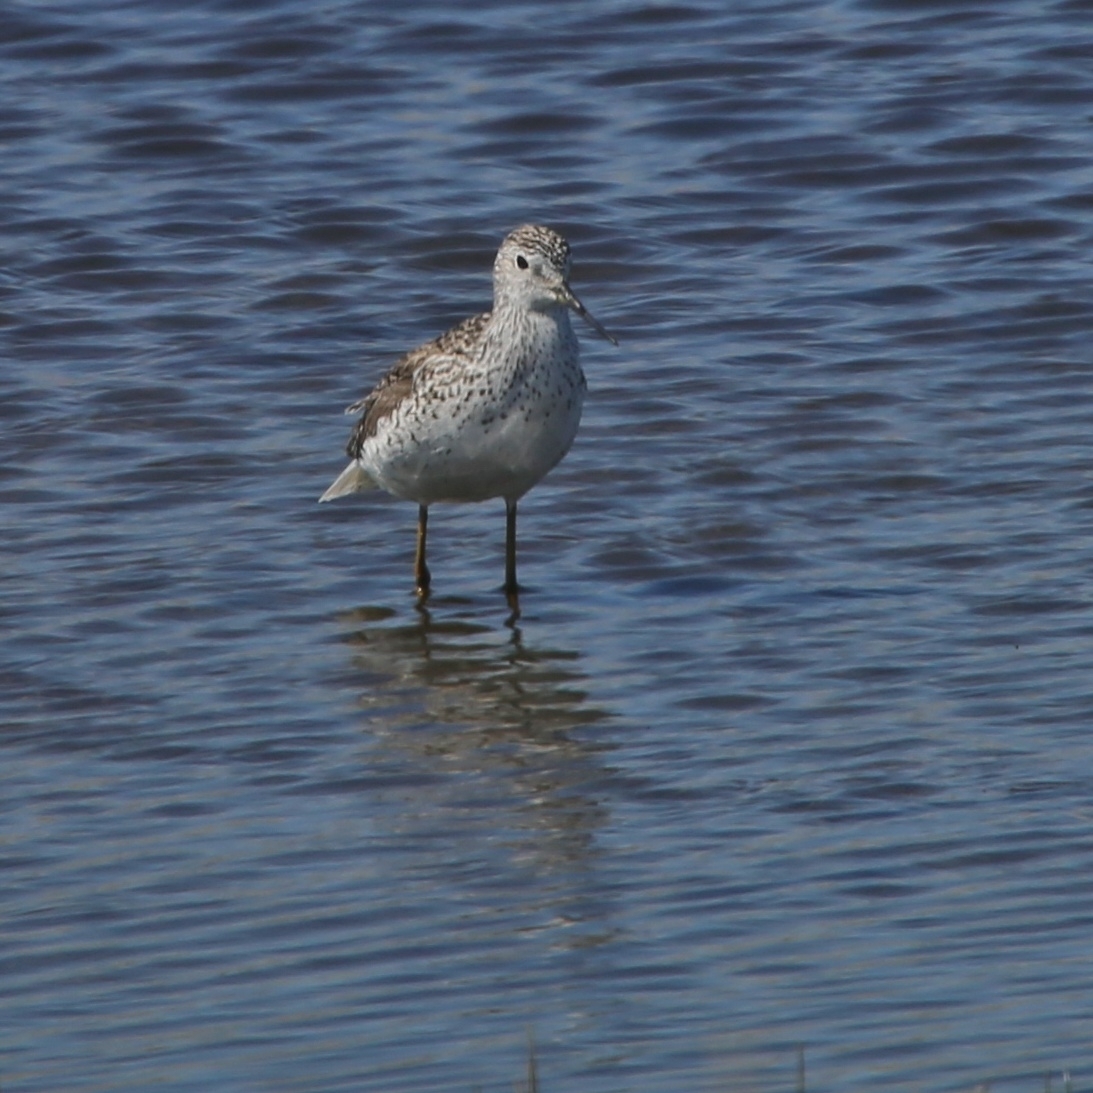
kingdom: Animalia
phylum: Chordata
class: Aves
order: Charadriiformes
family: Scolopacidae
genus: Tringa
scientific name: Tringa stagnatilis
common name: Marsh sandpiper
